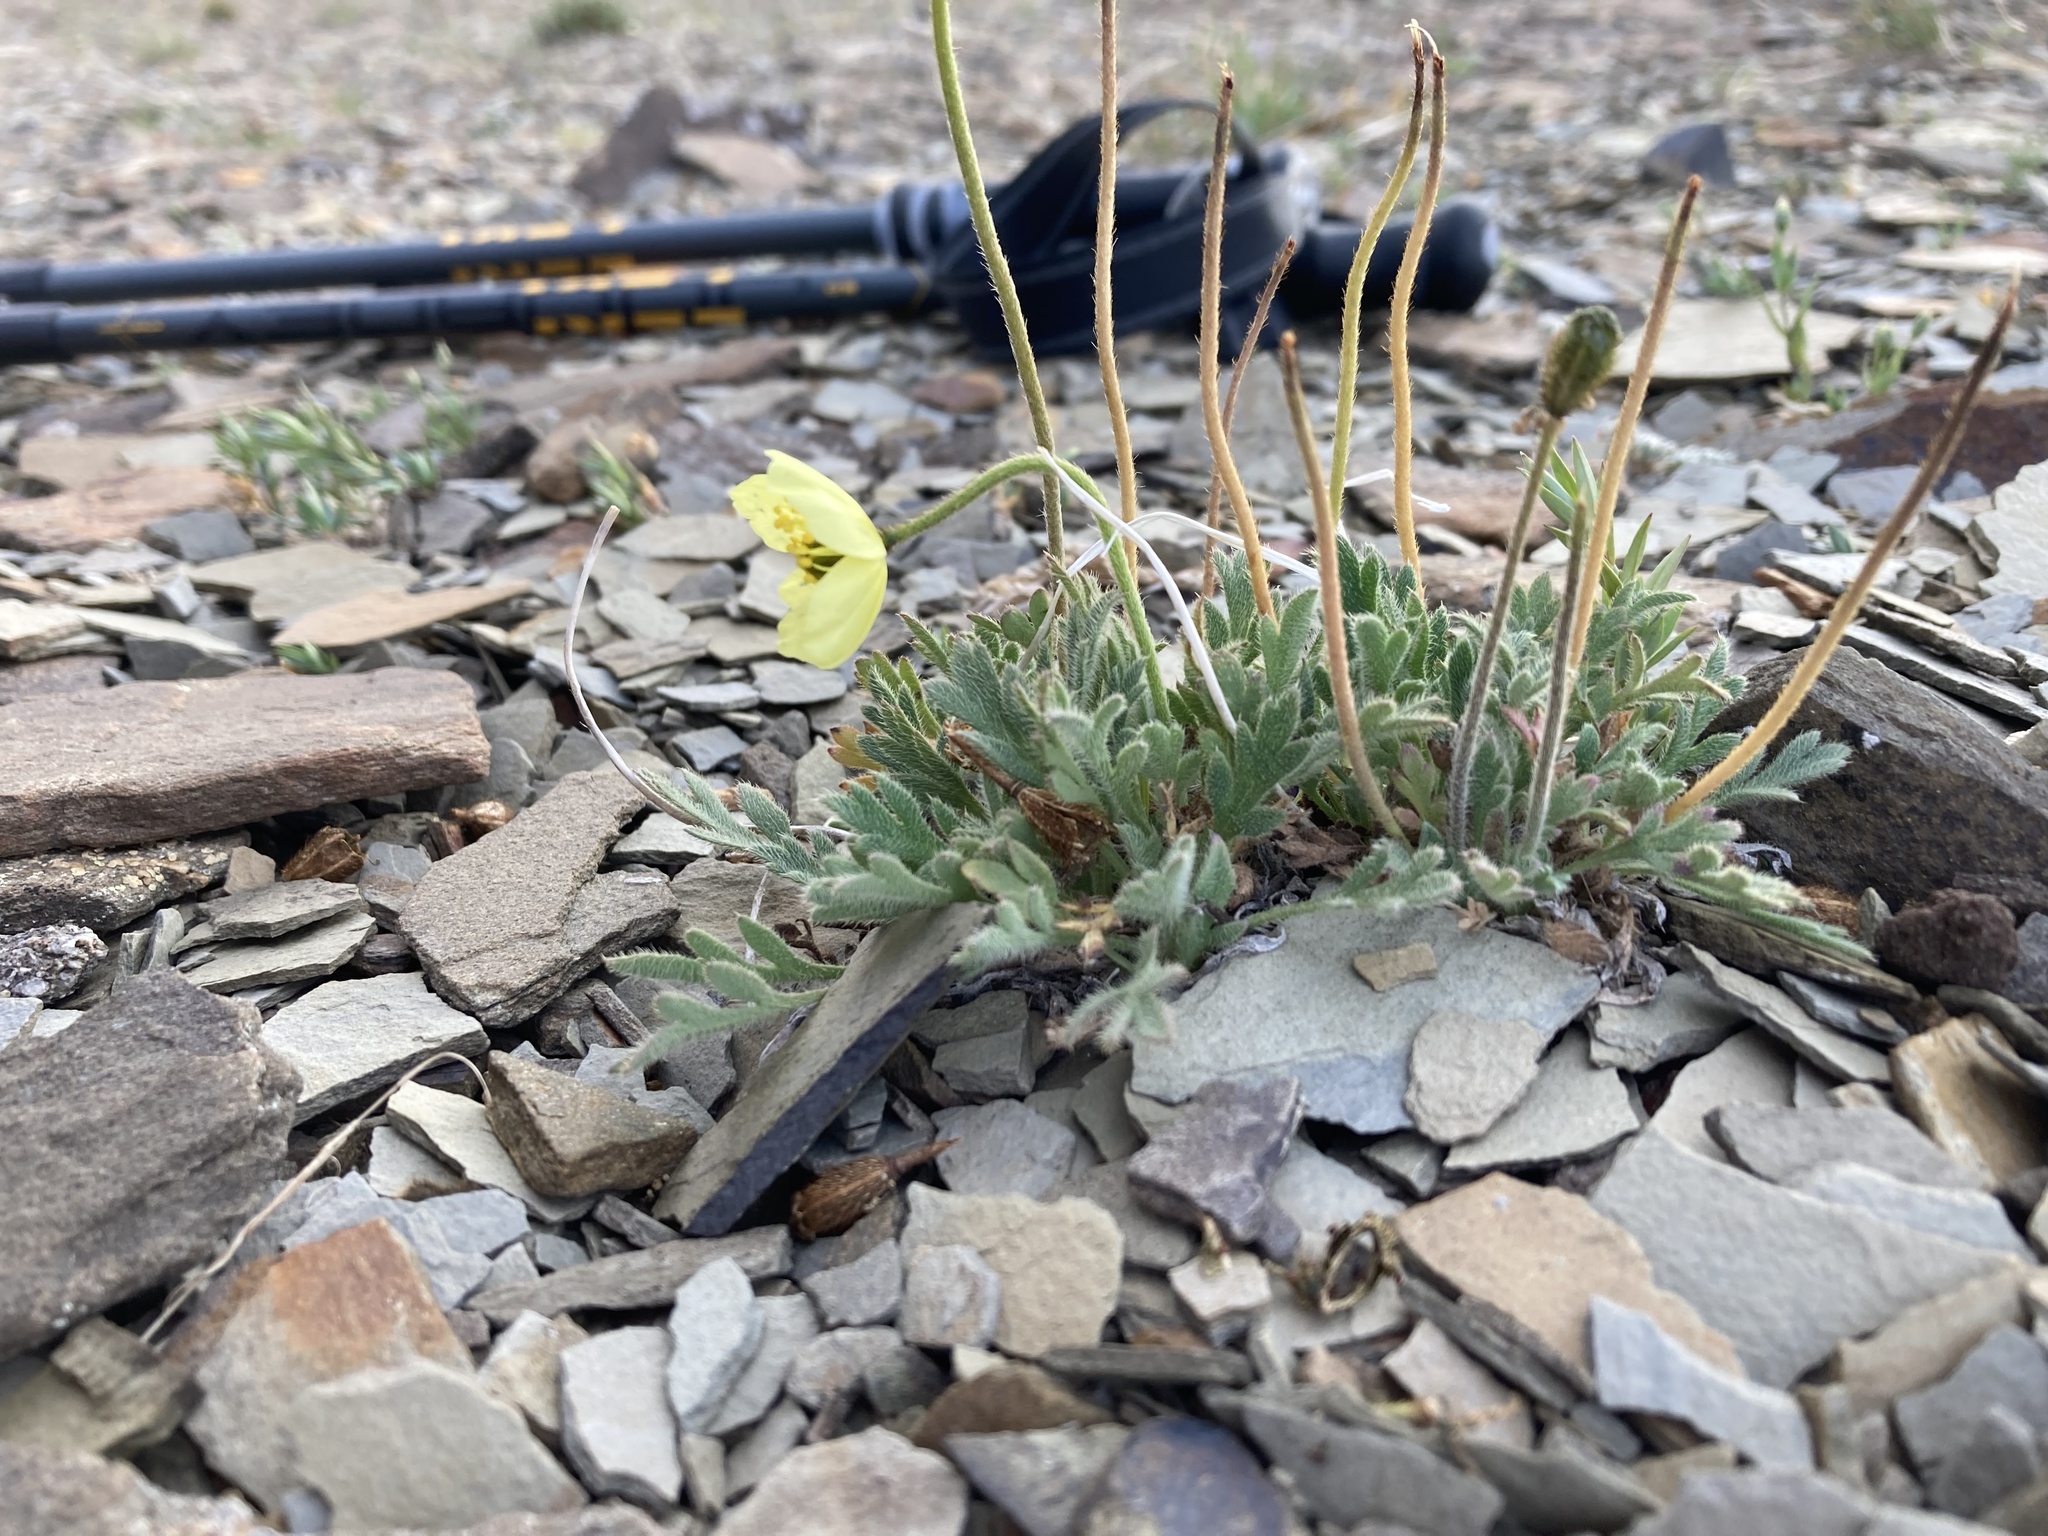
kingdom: Plantae
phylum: Tracheophyta
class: Magnoliopsida
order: Ranunculales
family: Papaveraceae
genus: Papaver
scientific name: Papaver radicatum
